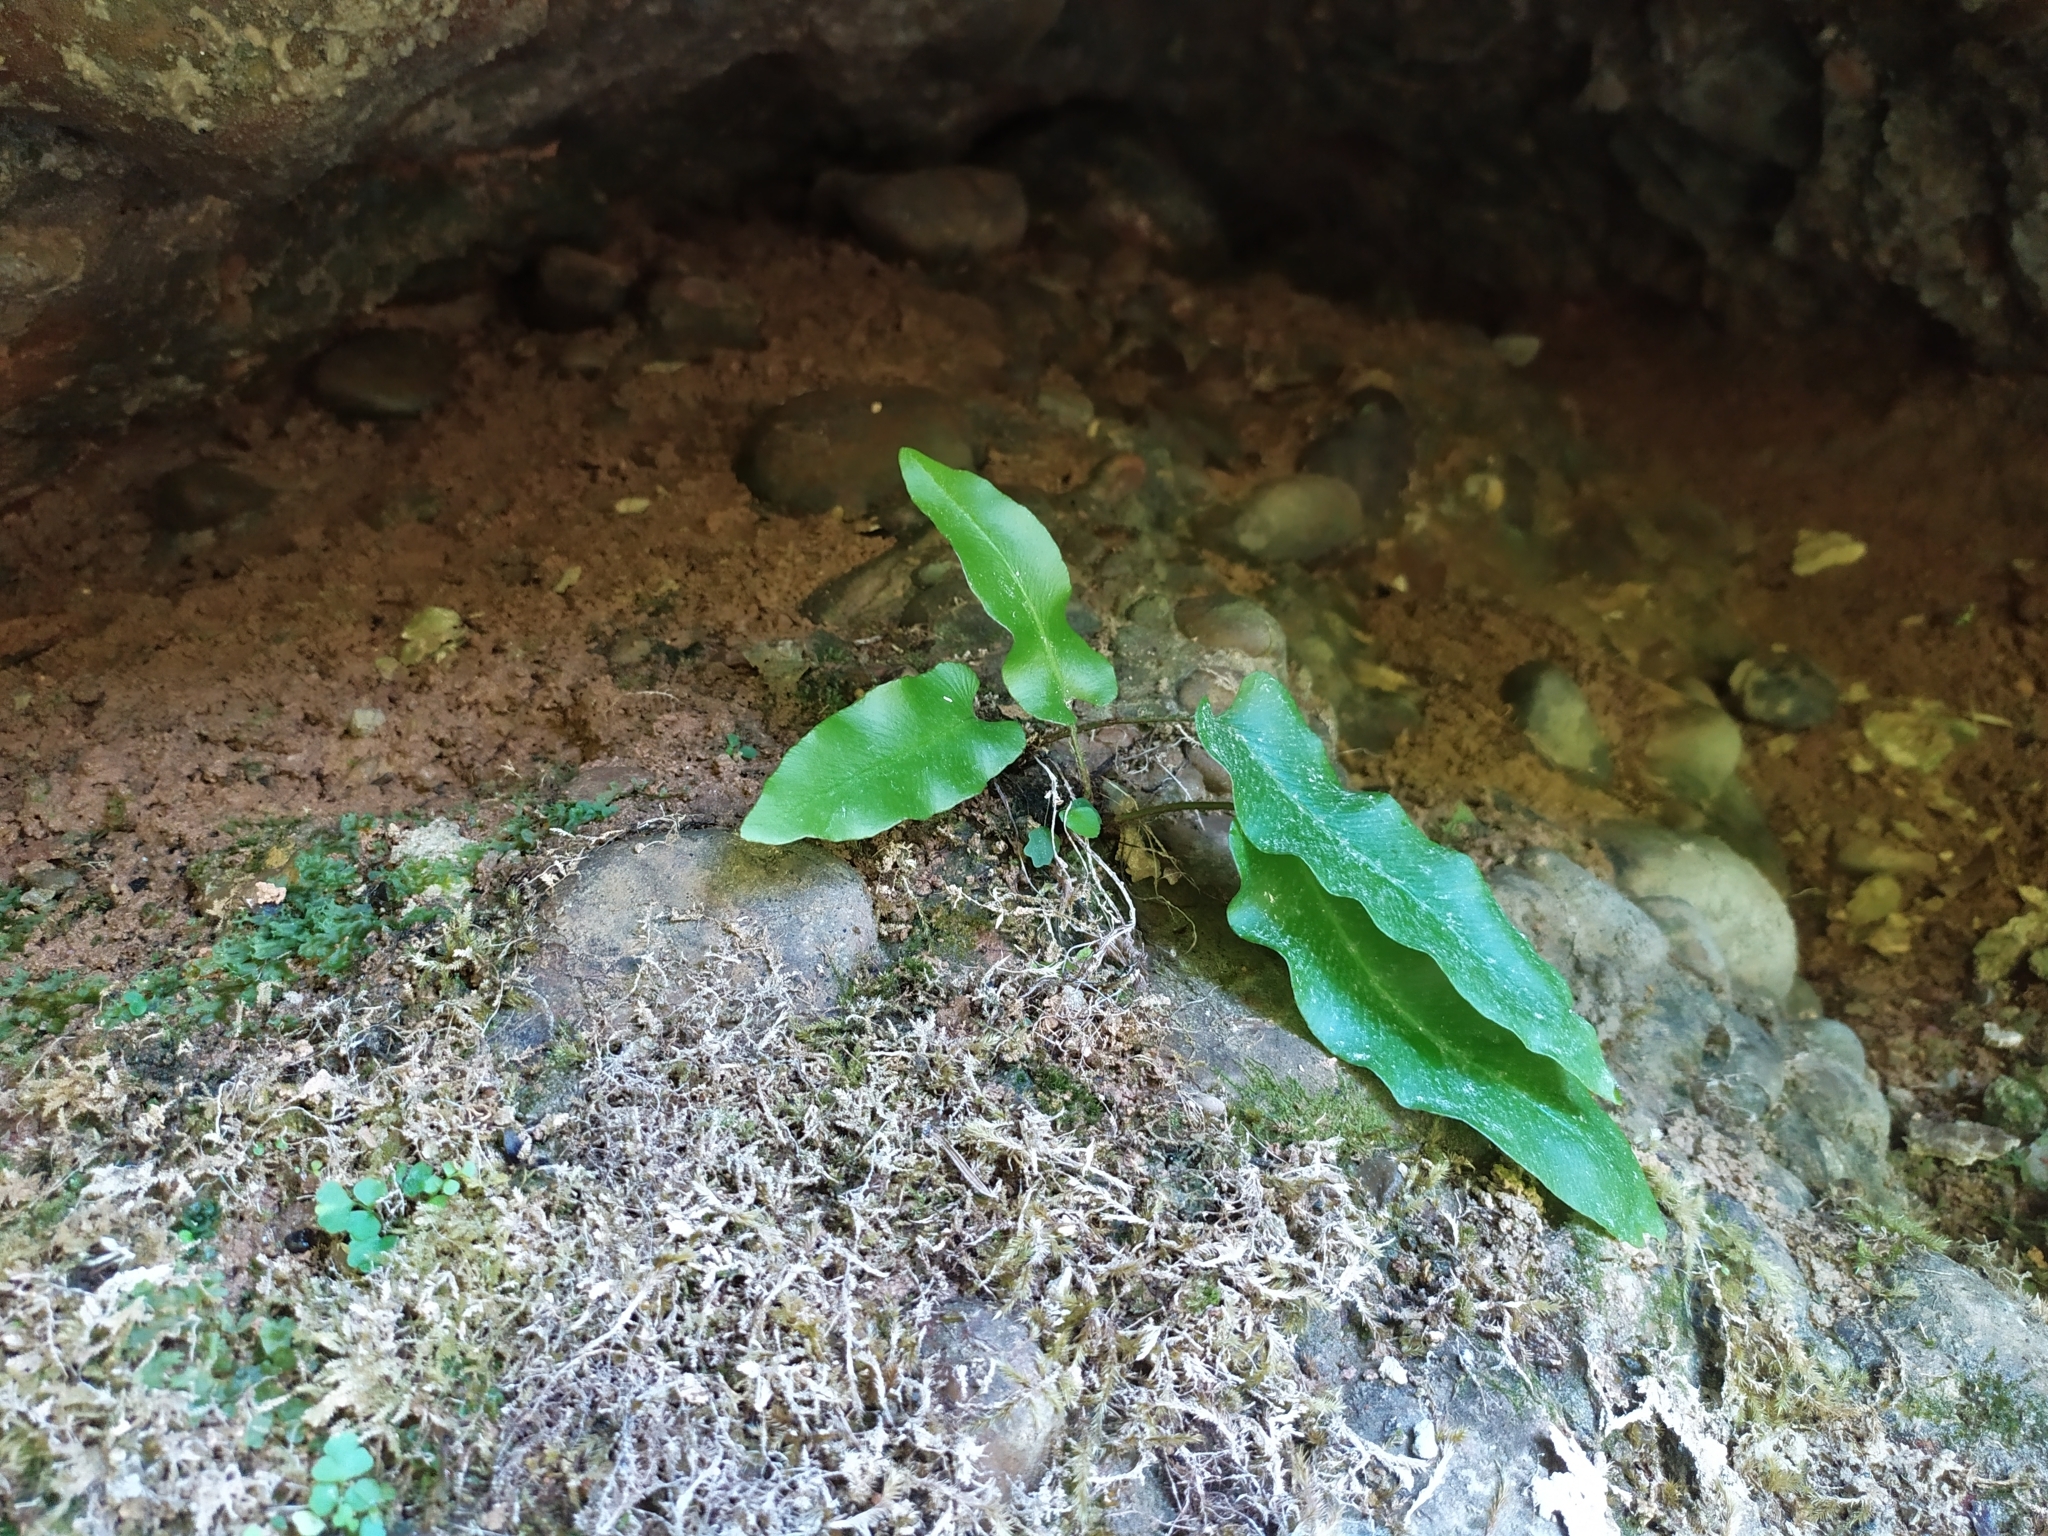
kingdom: Plantae
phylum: Tracheophyta
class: Polypodiopsida
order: Polypodiales
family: Aspleniaceae
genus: Asplenium
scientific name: Asplenium scolopendrium
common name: Hart's-tongue fern
